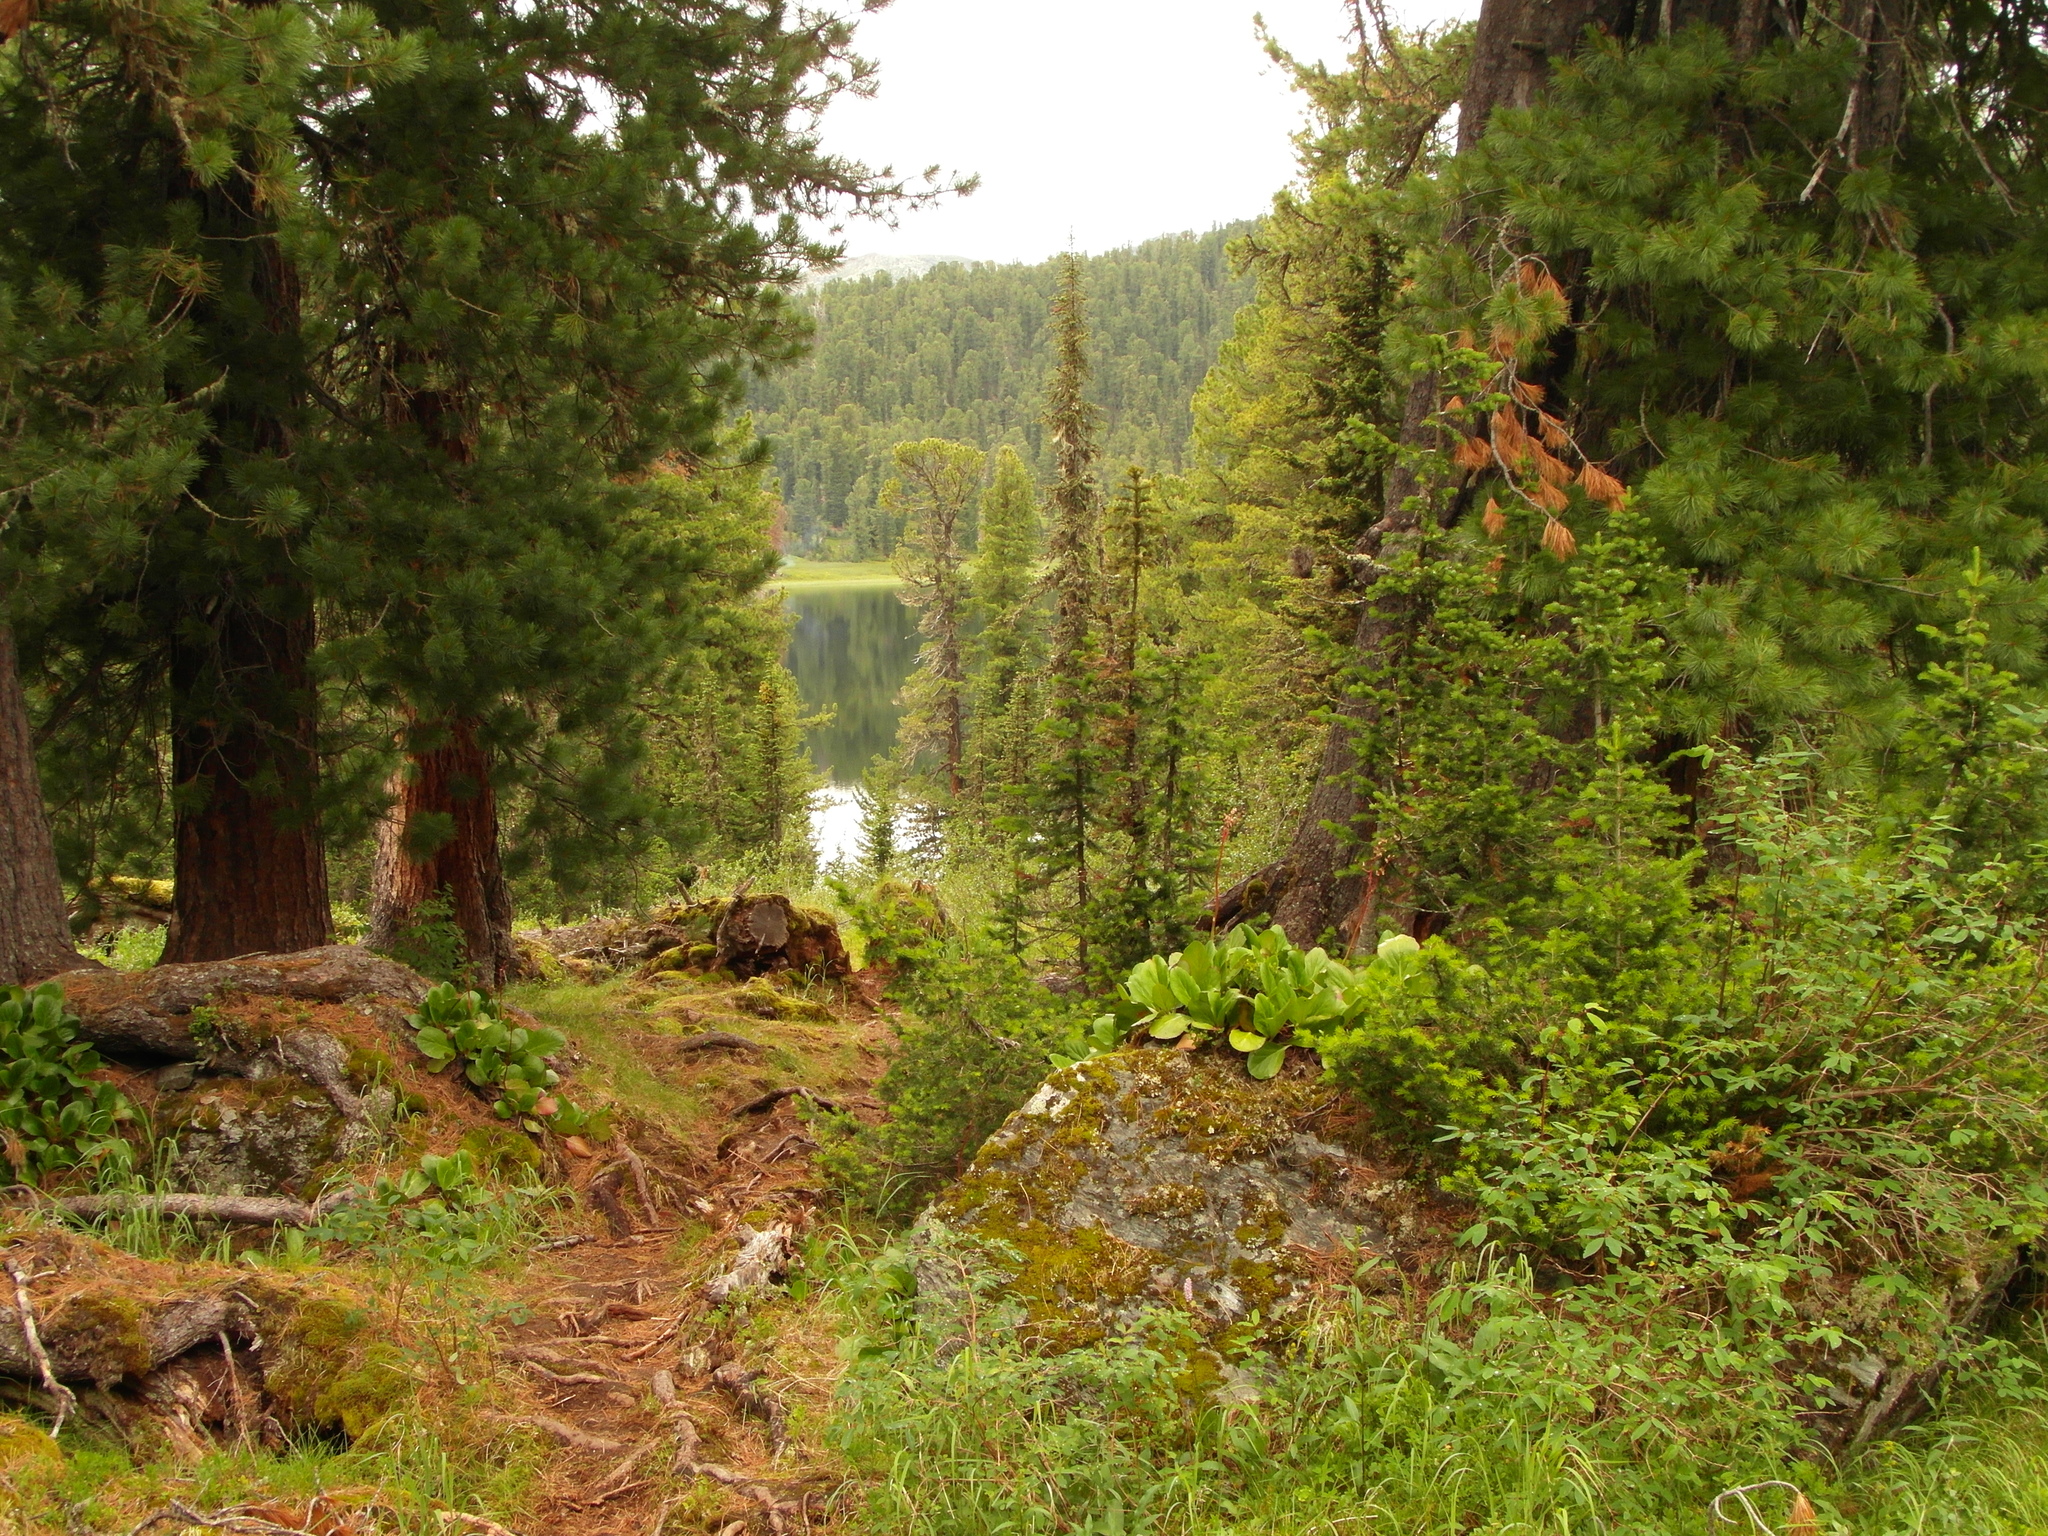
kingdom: Plantae
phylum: Tracheophyta
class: Pinopsida
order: Pinales
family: Pinaceae
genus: Pinus
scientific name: Pinus sibirica
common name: Siberian pine
